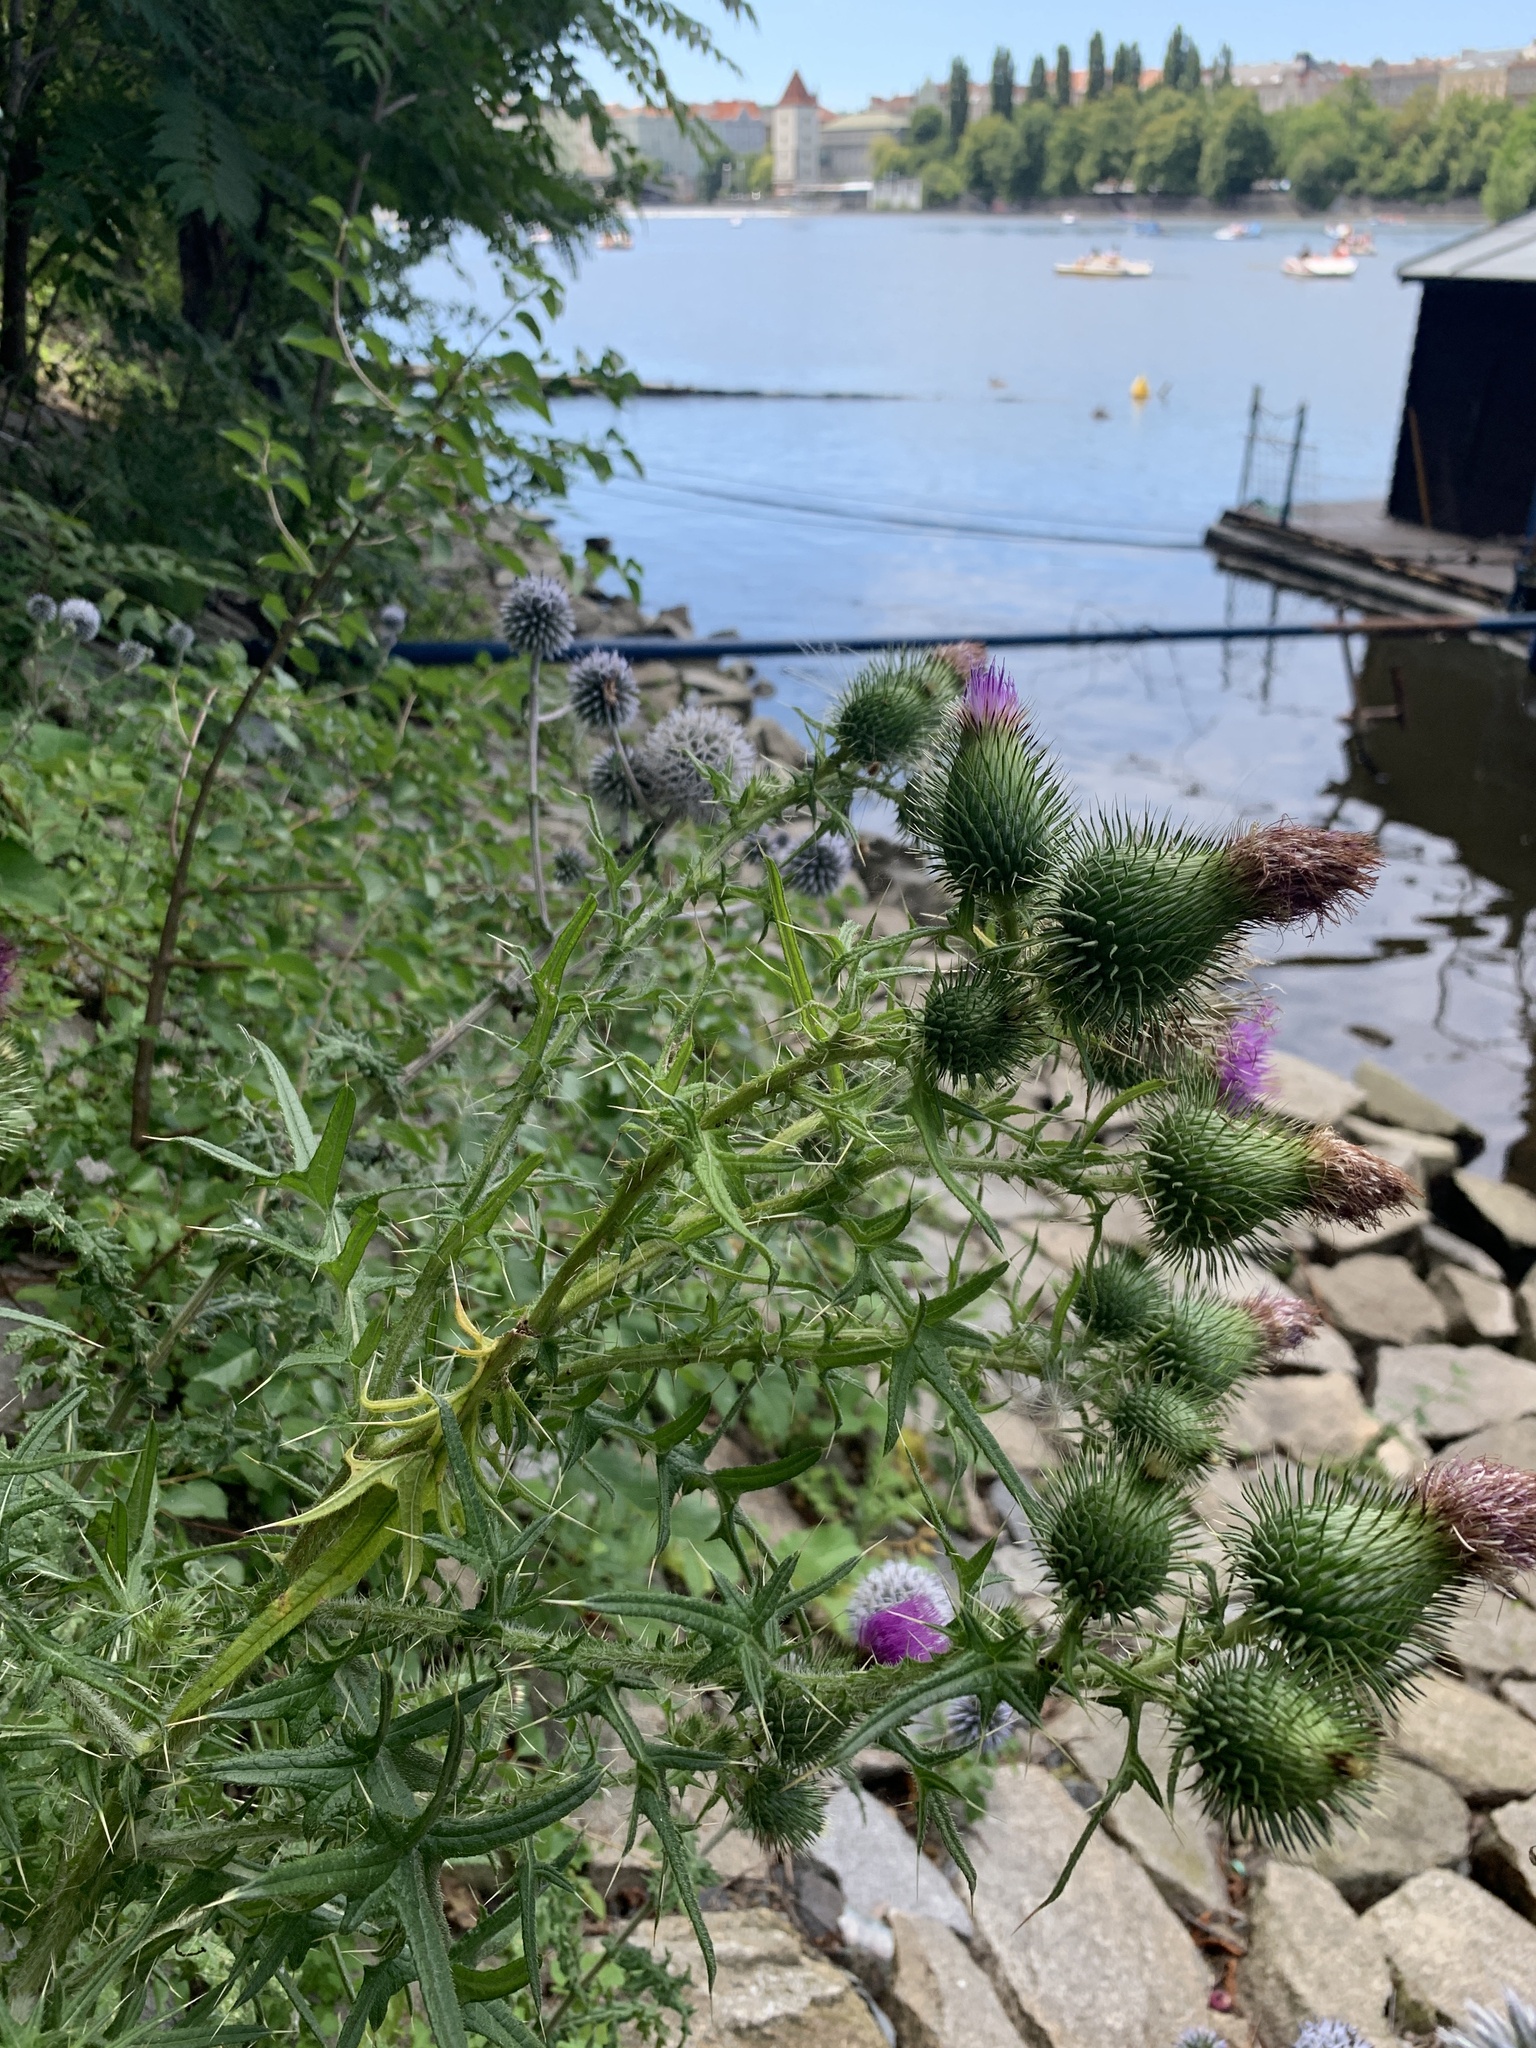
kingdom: Plantae
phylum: Tracheophyta
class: Magnoliopsida
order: Asterales
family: Asteraceae
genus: Cirsium
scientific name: Cirsium vulgare
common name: Bull thistle
